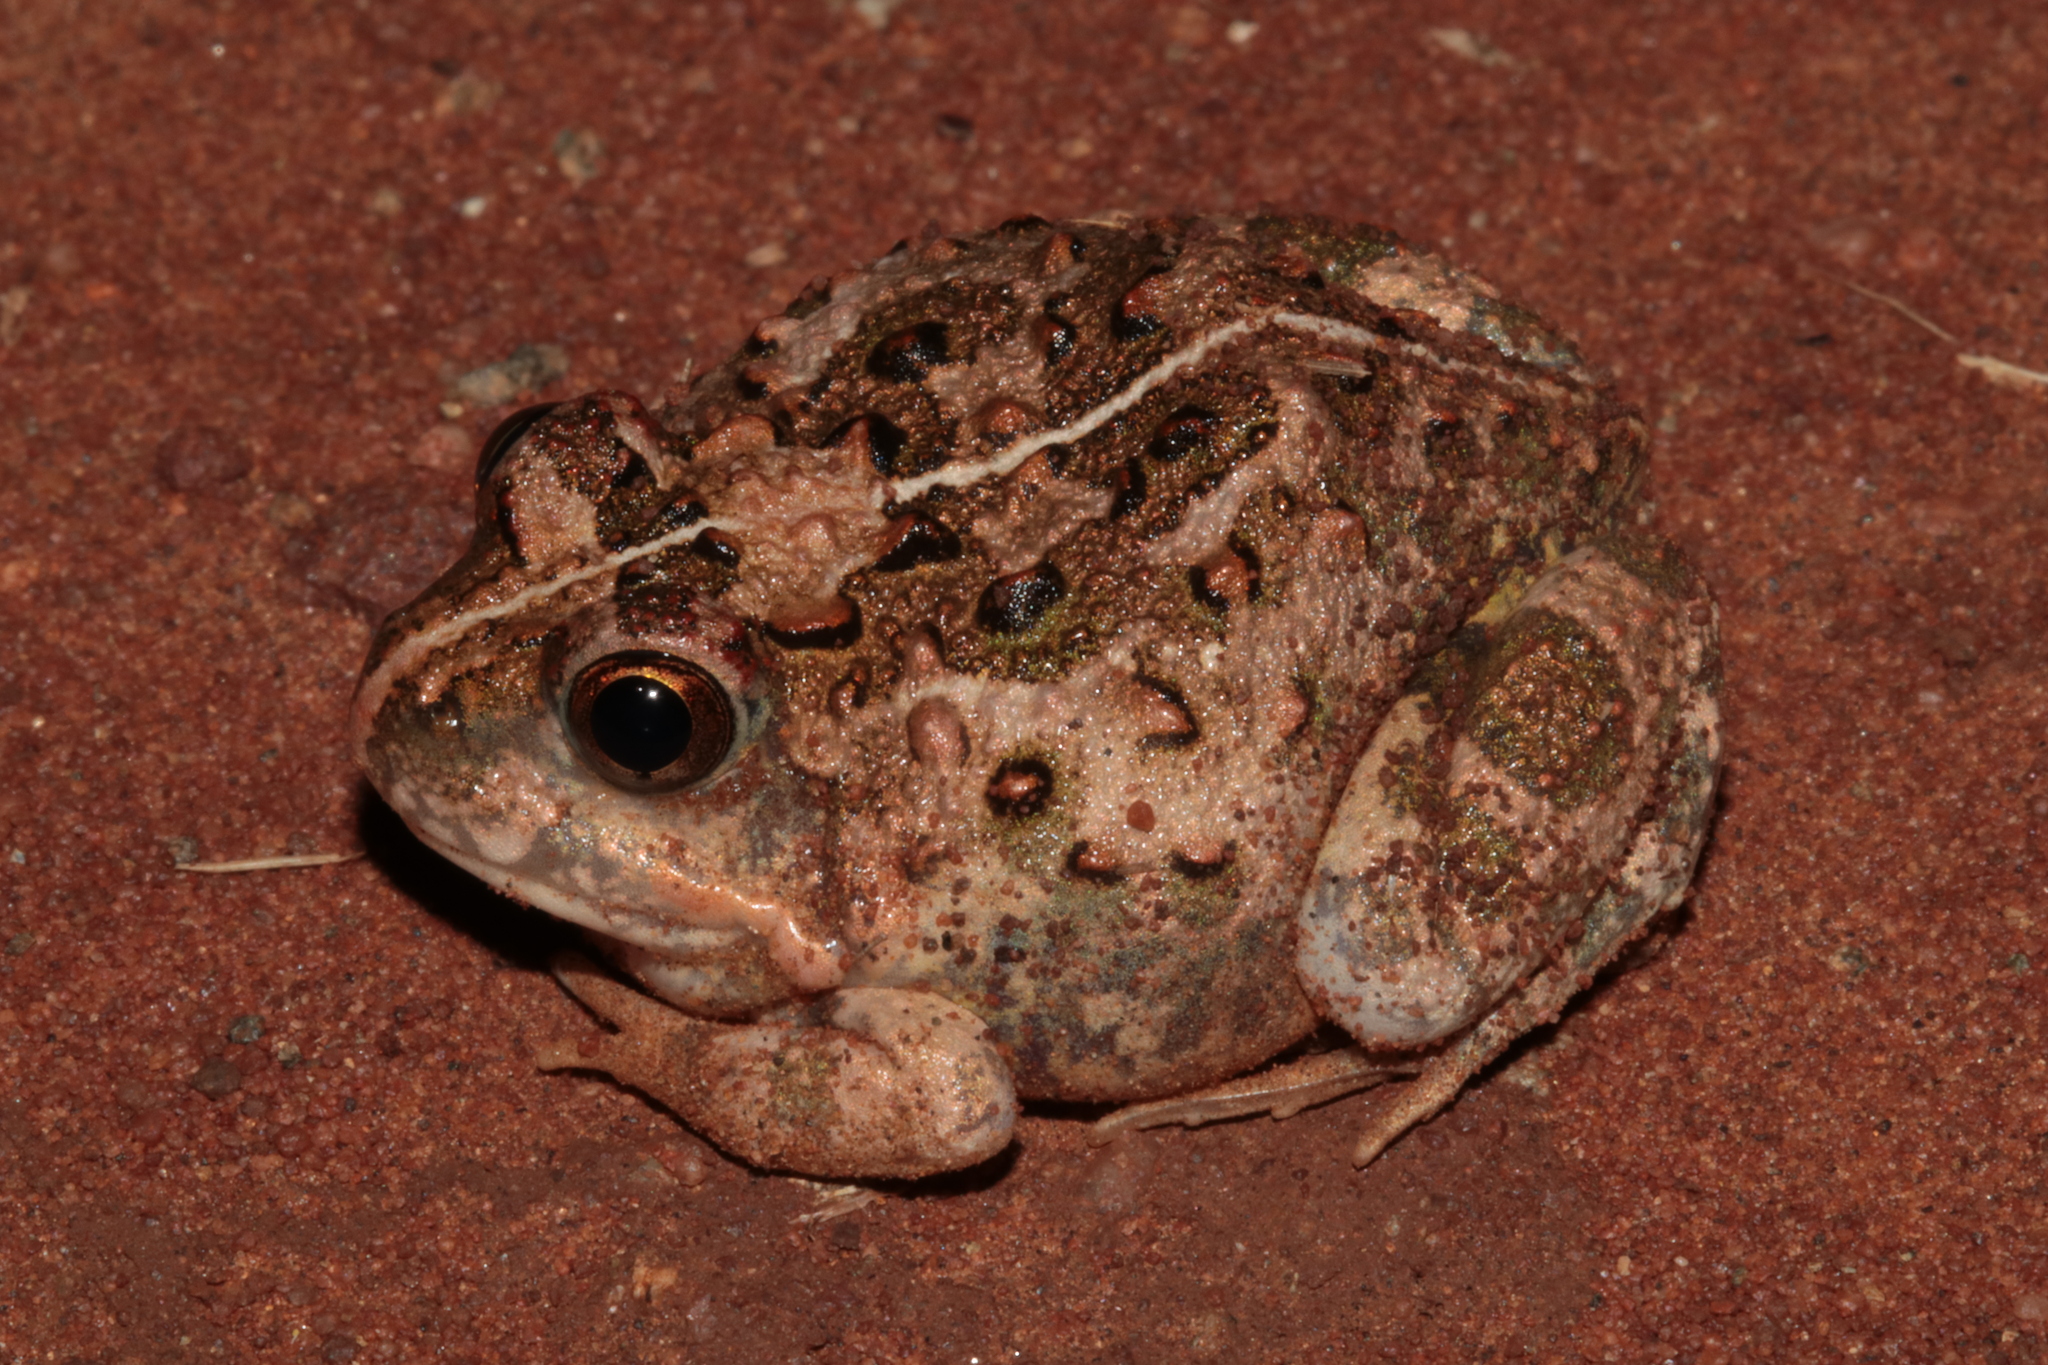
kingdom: Animalia
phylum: Chordata
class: Amphibia
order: Anura
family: Pyxicephalidae
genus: Tomopterna
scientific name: Tomopterna
